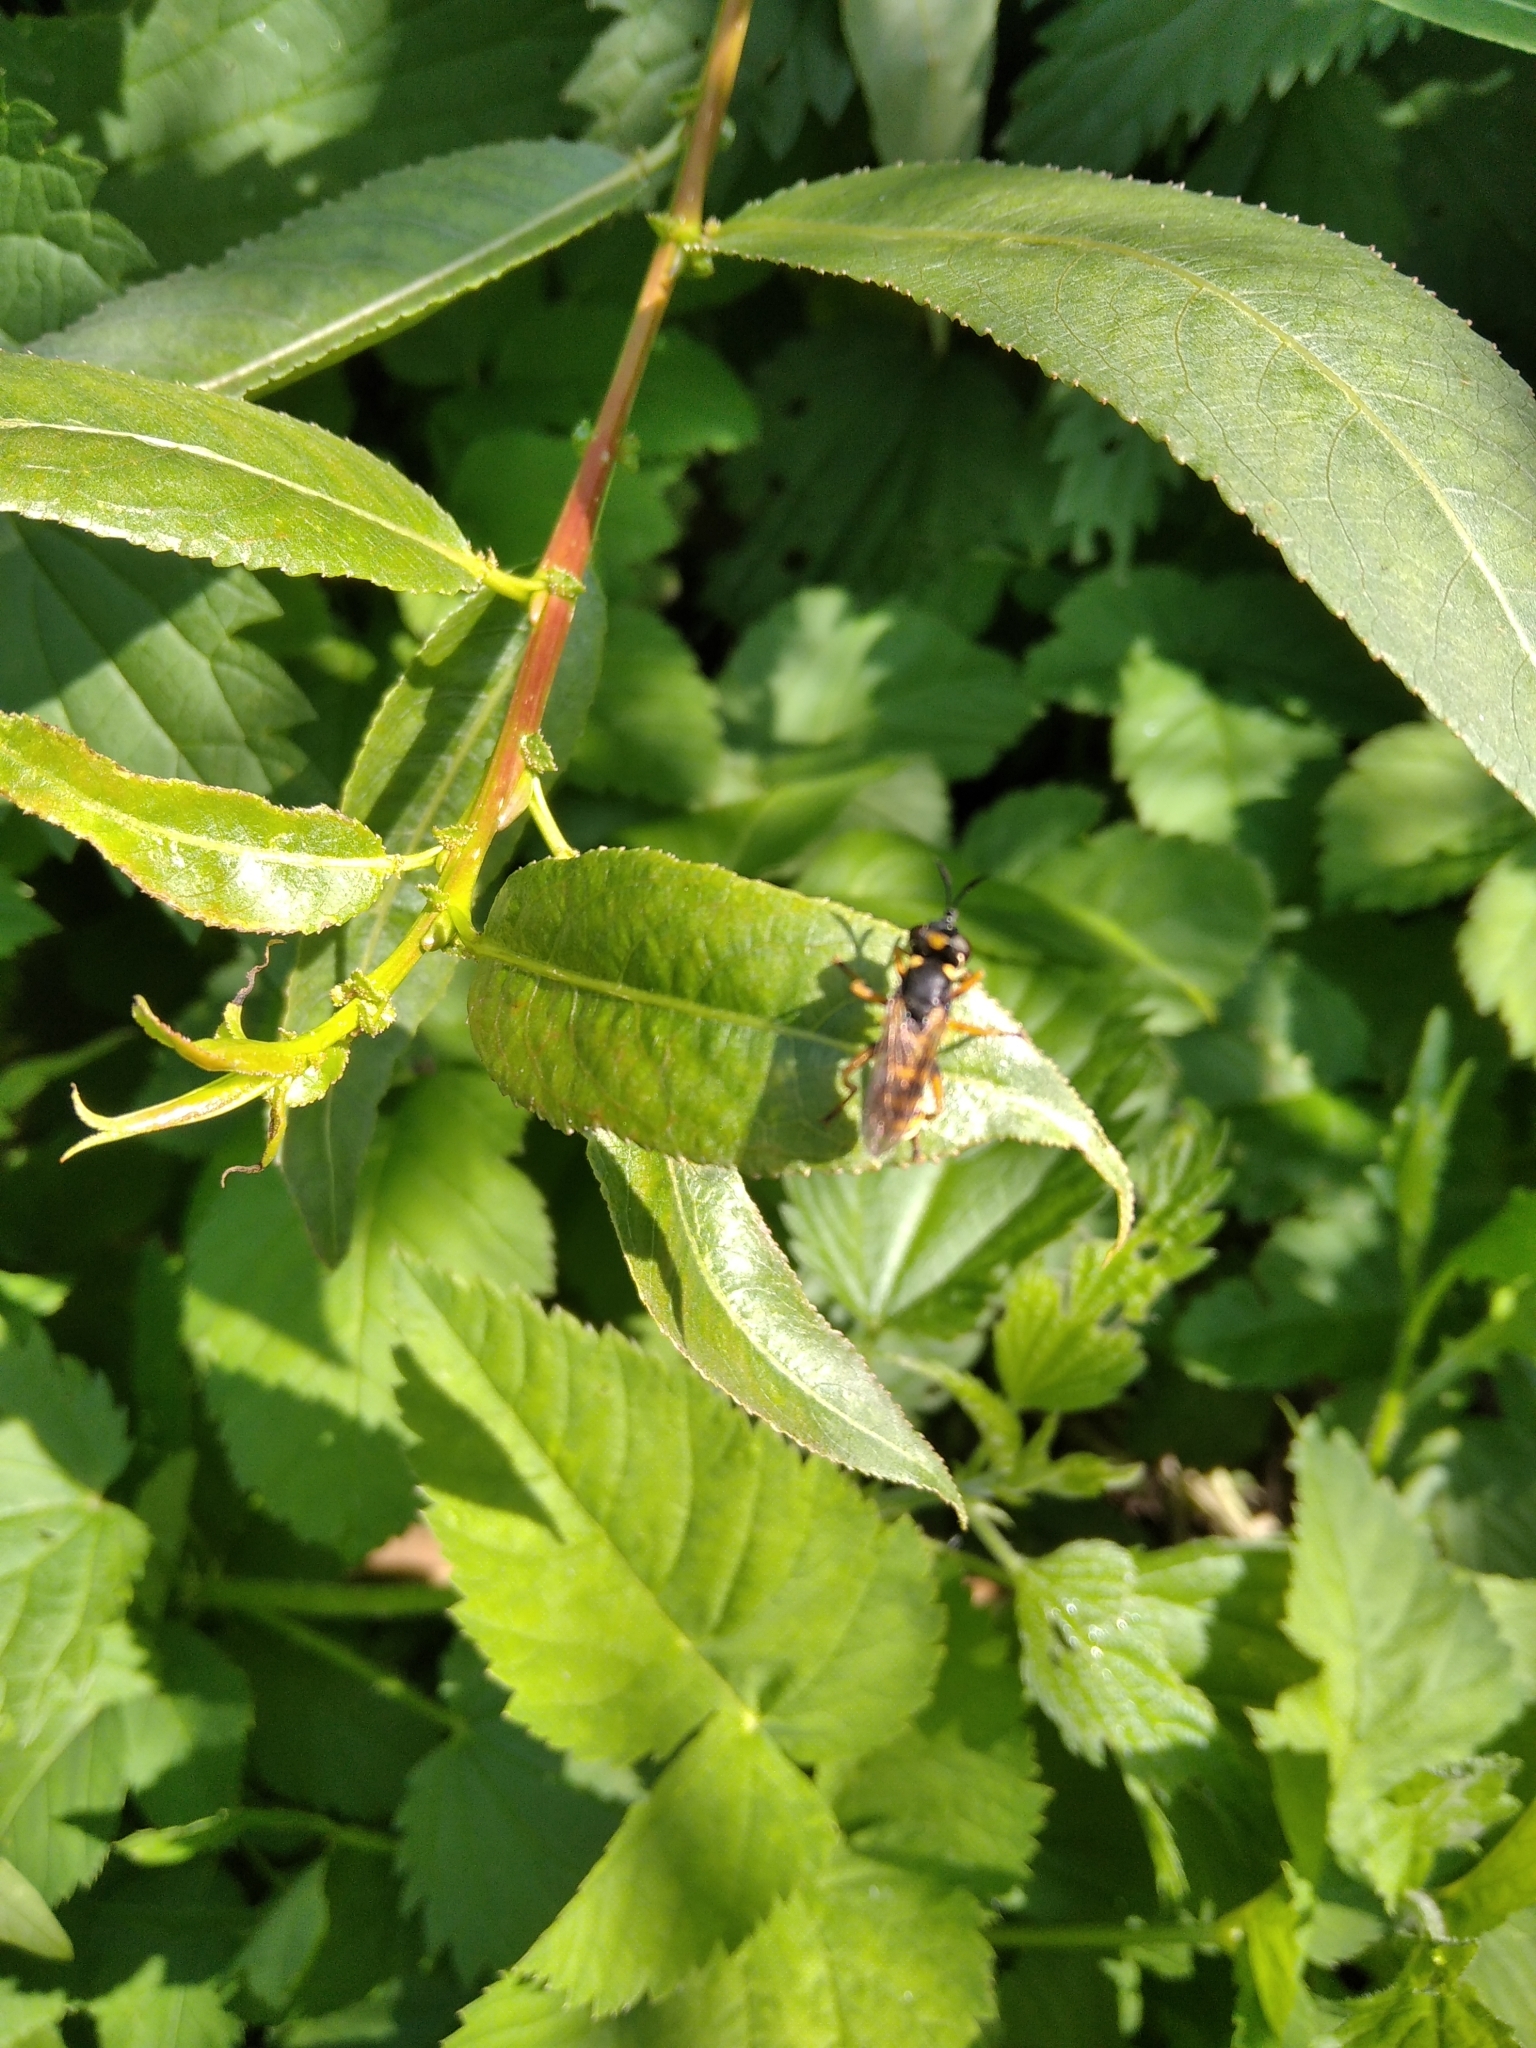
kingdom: Animalia
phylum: Arthropoda
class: Insecta
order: Diptera
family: Conopidae
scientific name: Conopidae
